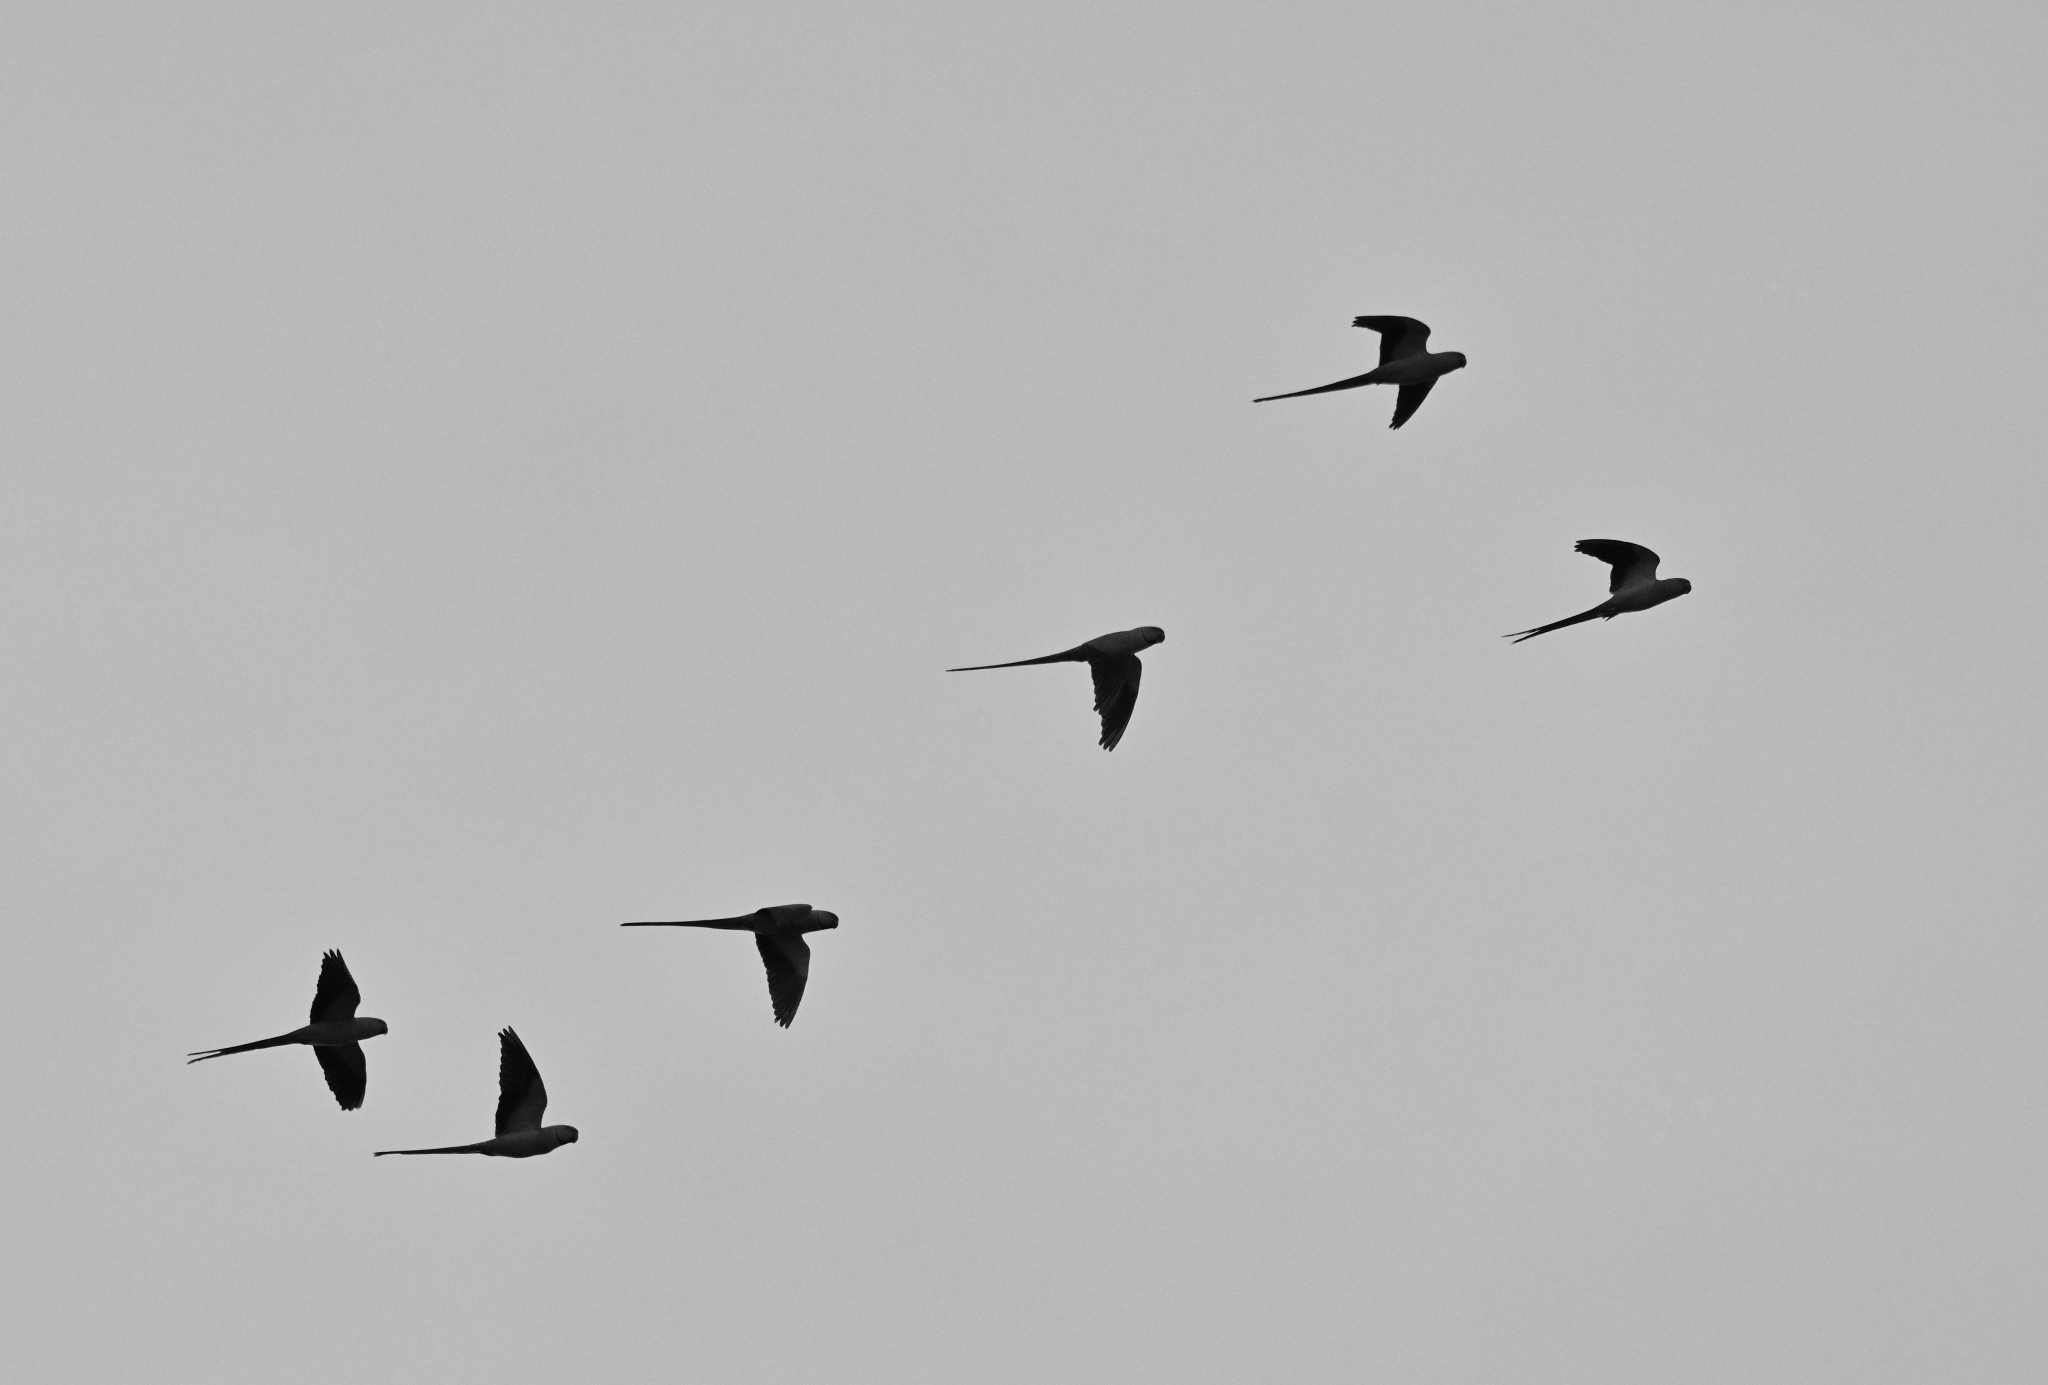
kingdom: Animalia
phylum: Chordata
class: Aves
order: Psittaciformes
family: Psittacidae
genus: Psittacula
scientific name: Psittacula krameri
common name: Rose-ringed parakeet
